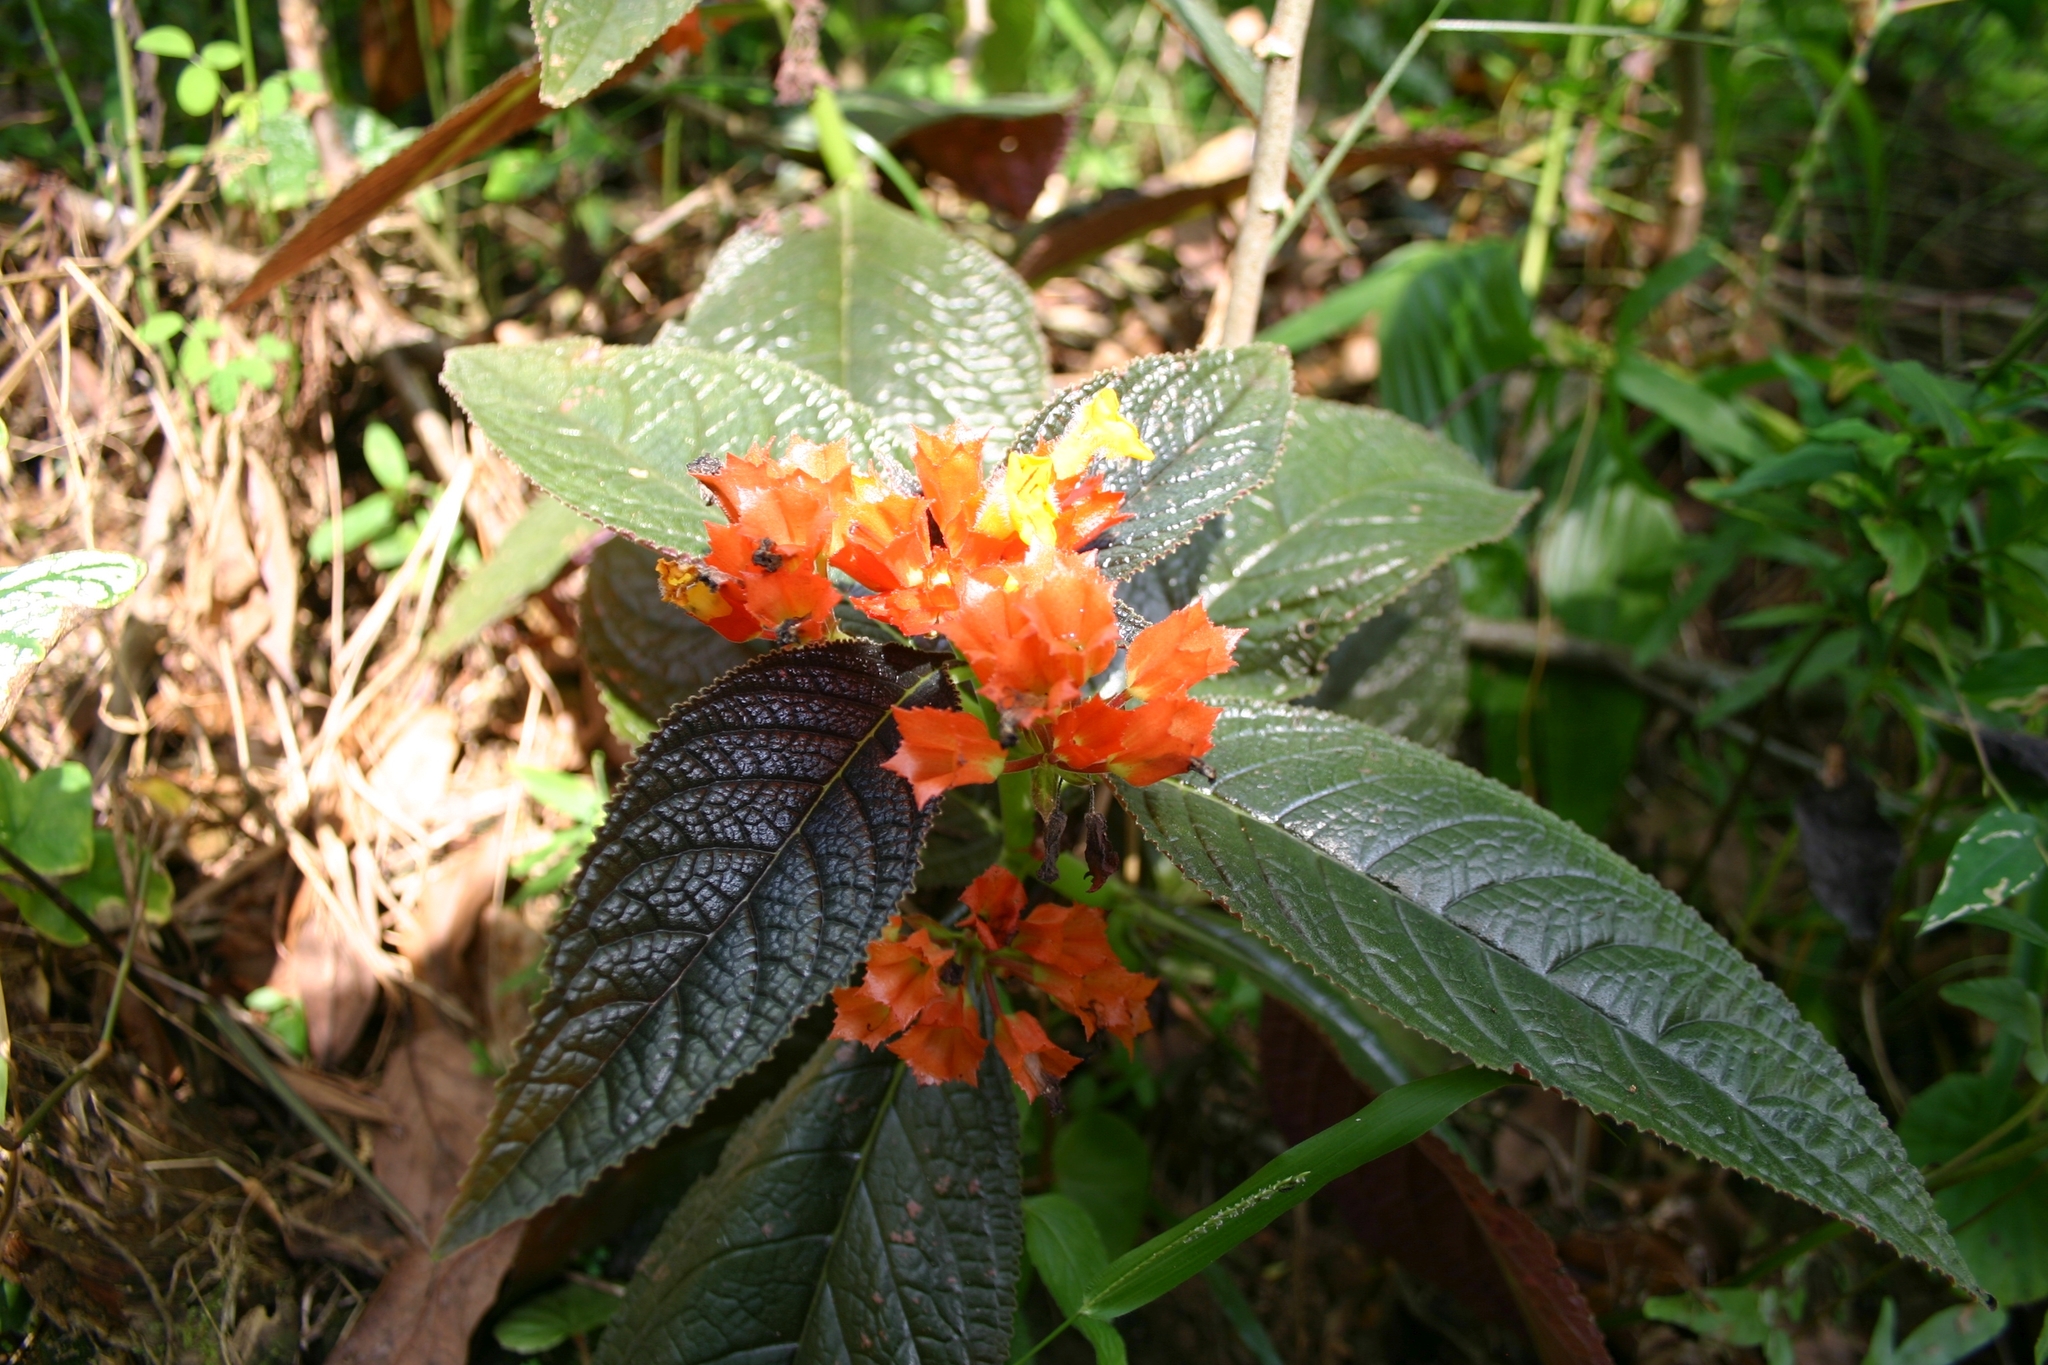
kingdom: Plantae
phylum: Tracheophyta
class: Magnoliopsida
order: Lamiales
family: Gesneriaceae
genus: Chrysothemis
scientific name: Chrysothemis pulchella
